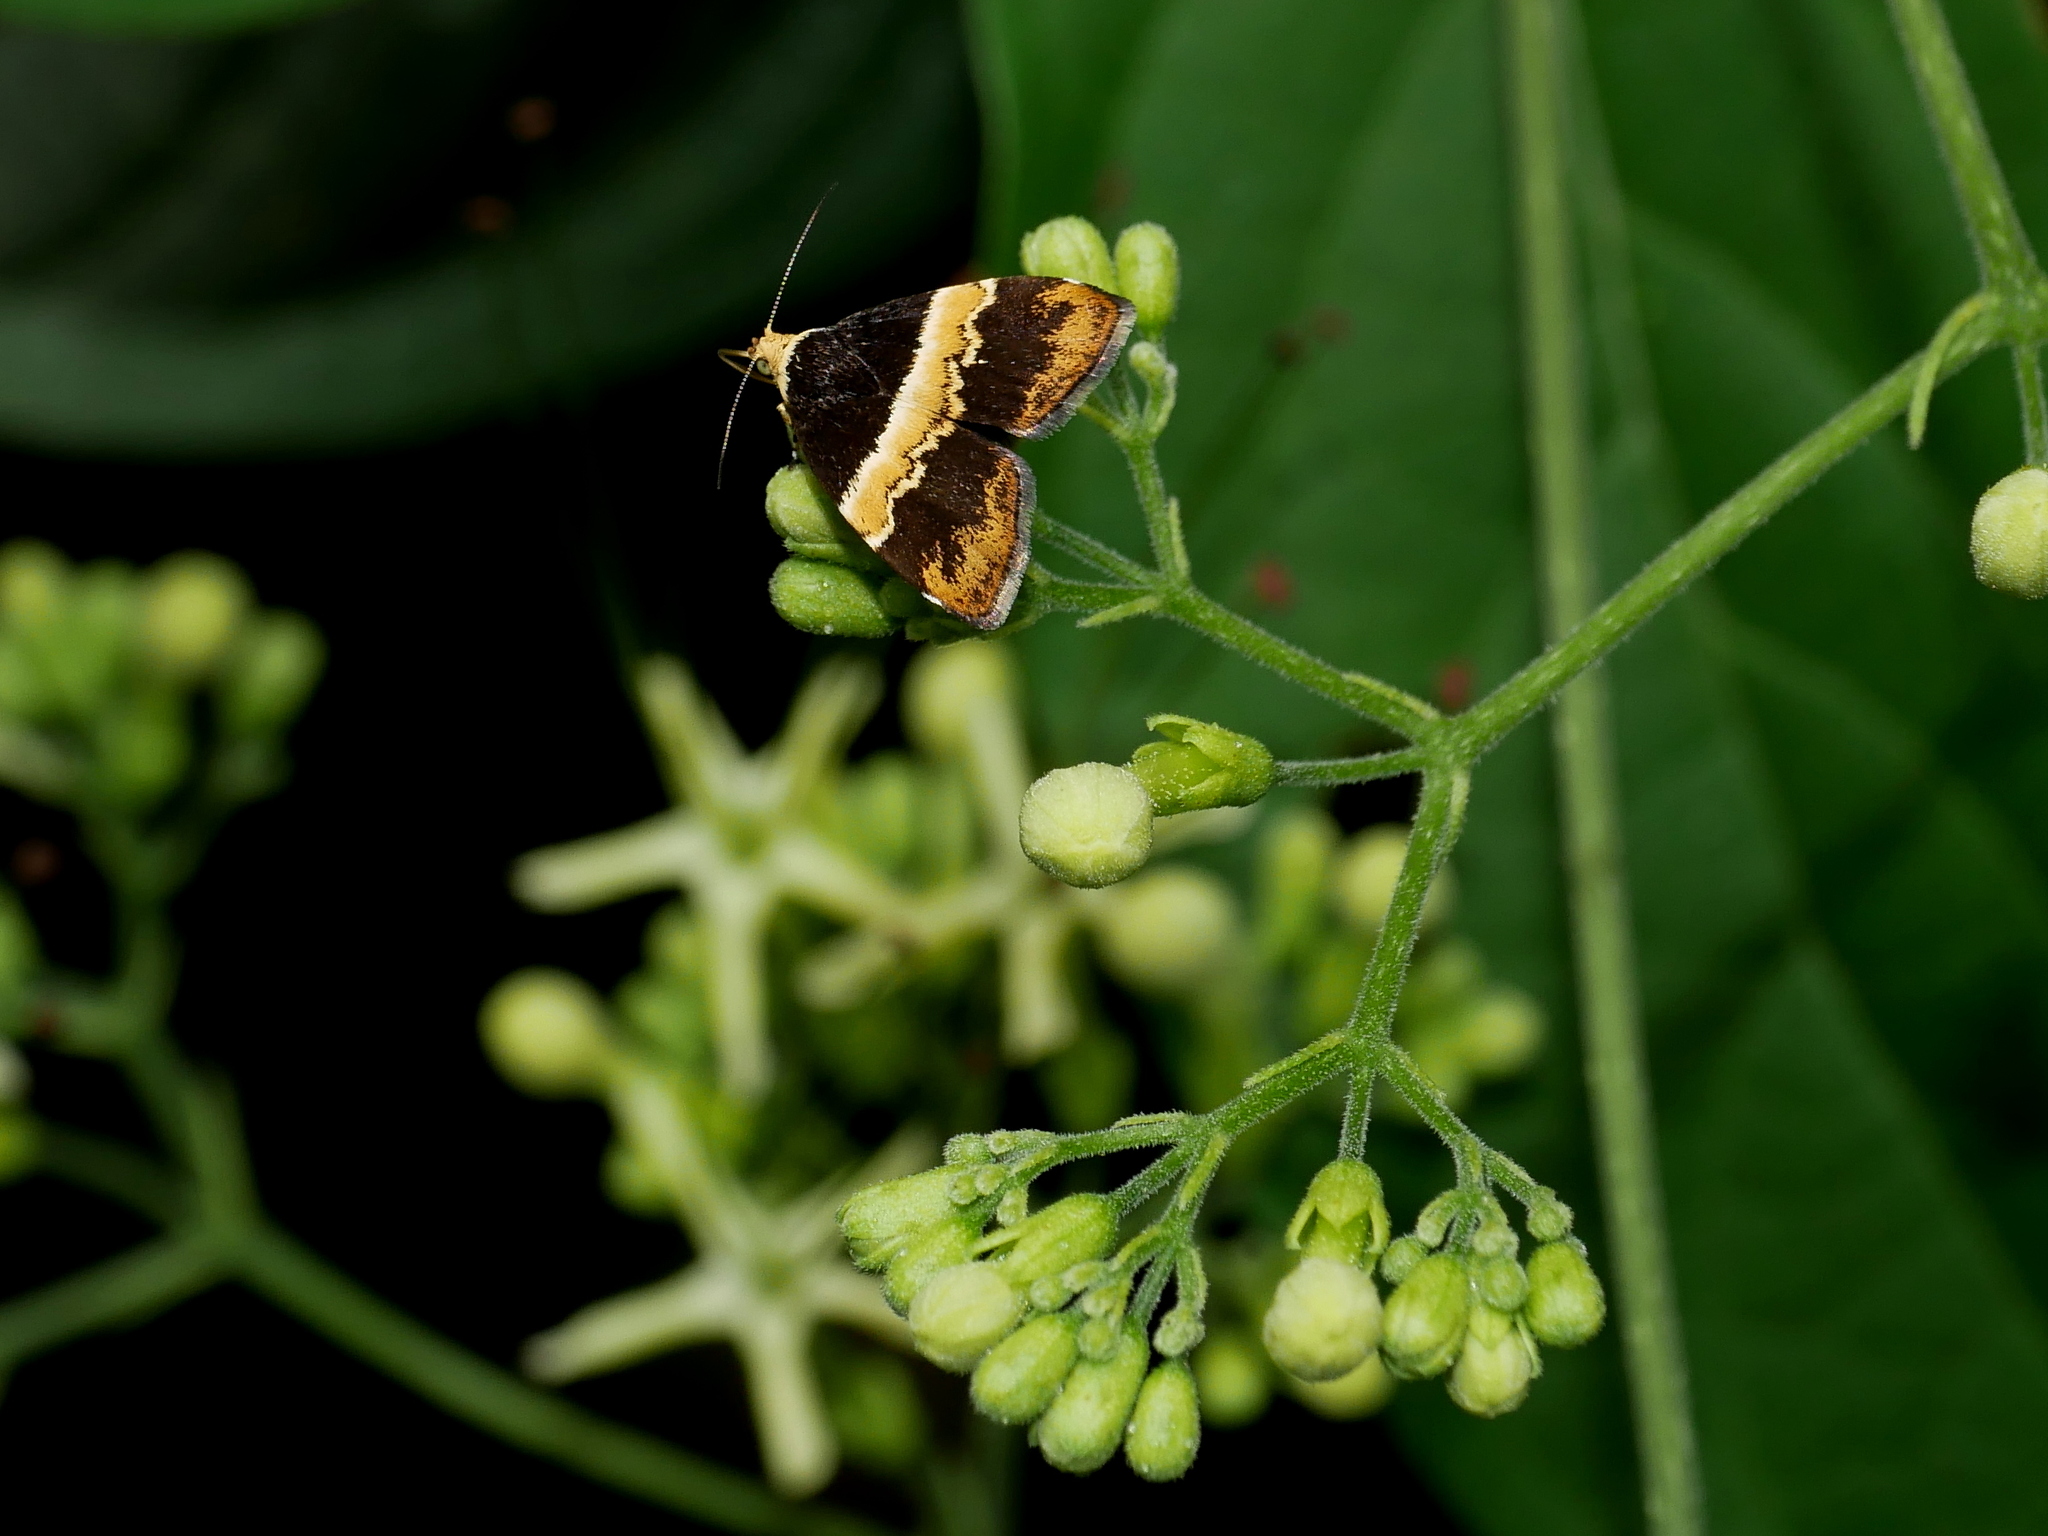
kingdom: Animalia
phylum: Arthropoda
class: Insecta
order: Lepidoptera
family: Choreutidae
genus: Choreutis
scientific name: Choreutis basalis
